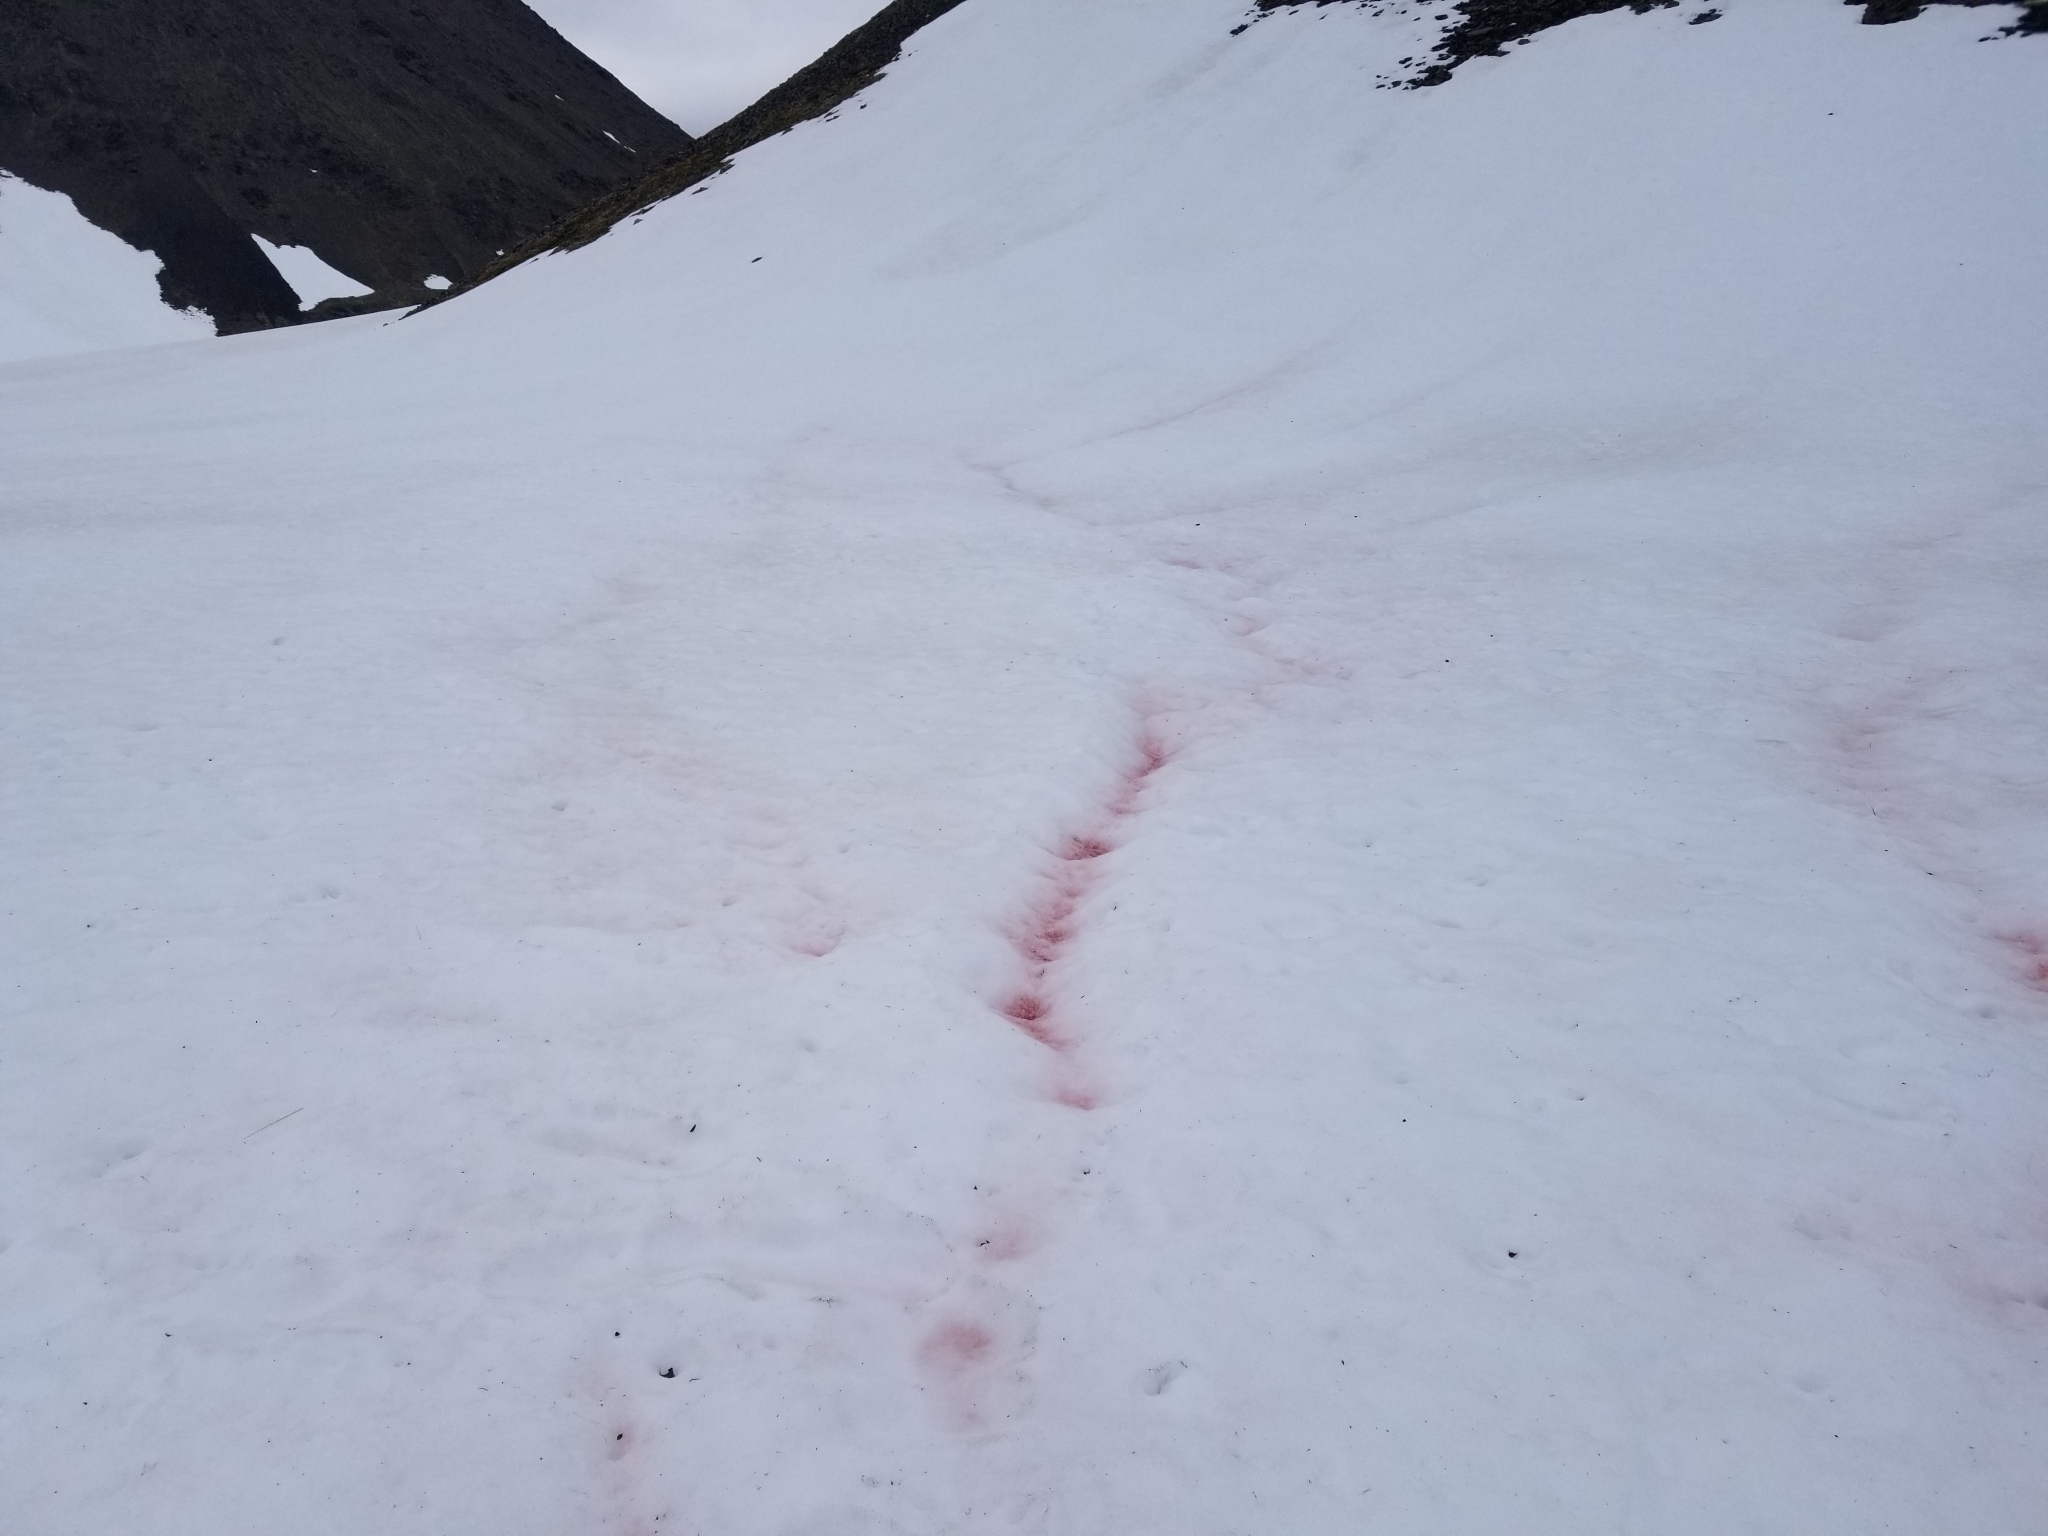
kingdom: Plantae
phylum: Chlorophyta
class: Chlorophyceae
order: Volvocales
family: Chlamydomonadaceae
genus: Chlamydomonas
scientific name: Chlamydomonas nivalis
